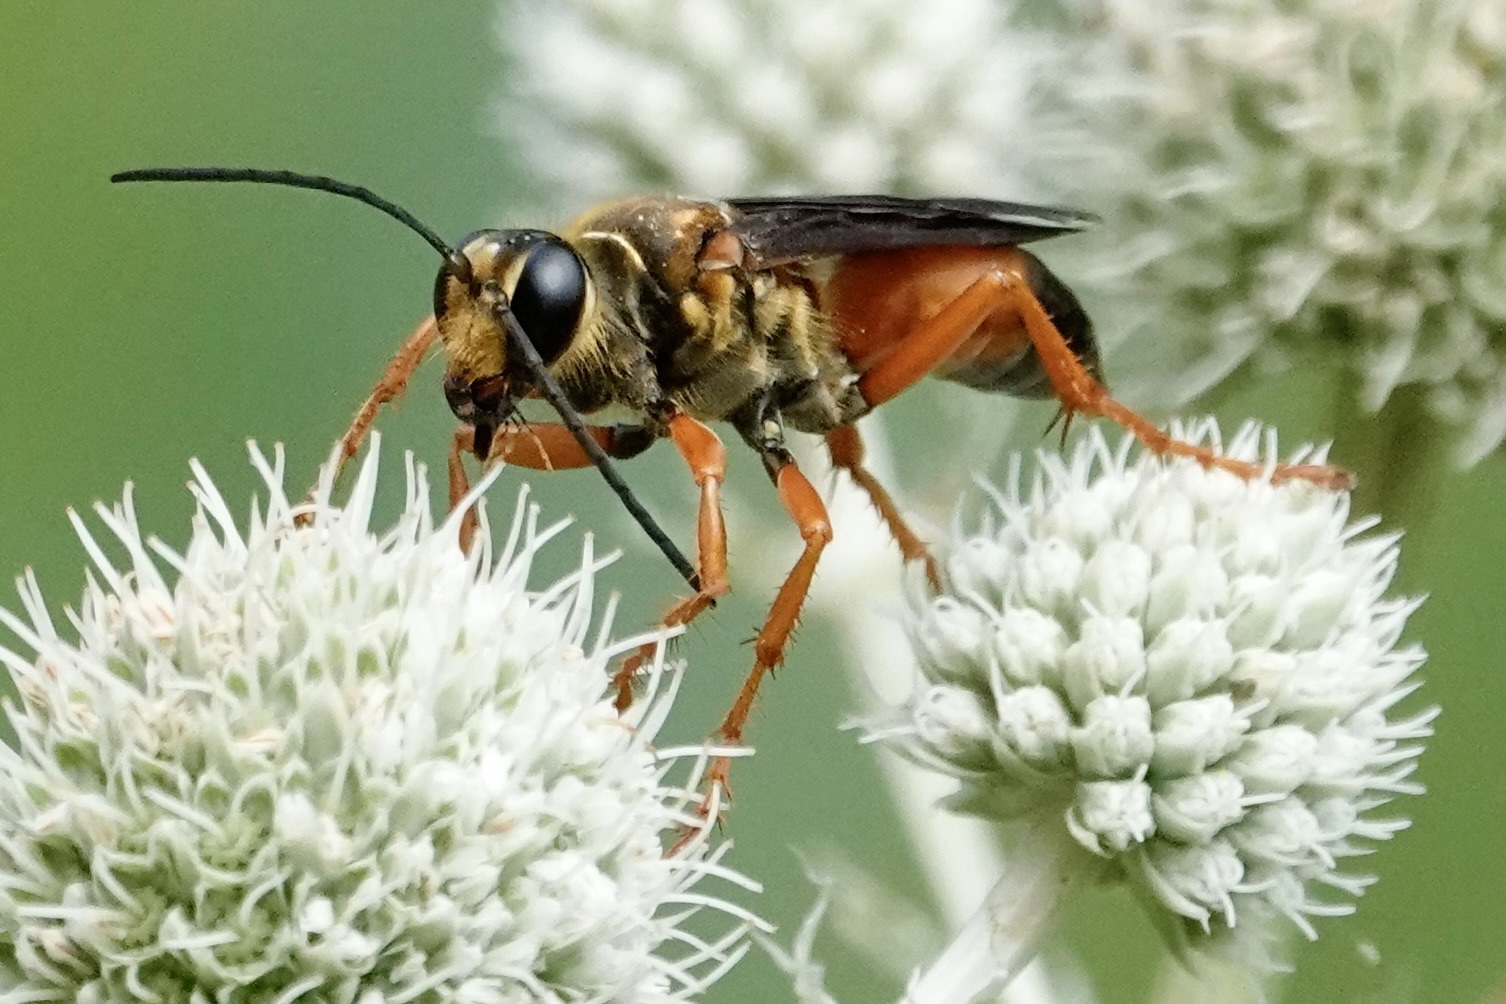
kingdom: Animalia
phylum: Arthropoda
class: Insecta
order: Hymenoptera
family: Sphecidae
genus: Sphex
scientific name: Sphex ichneumoneus
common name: Great golden digger wasp
